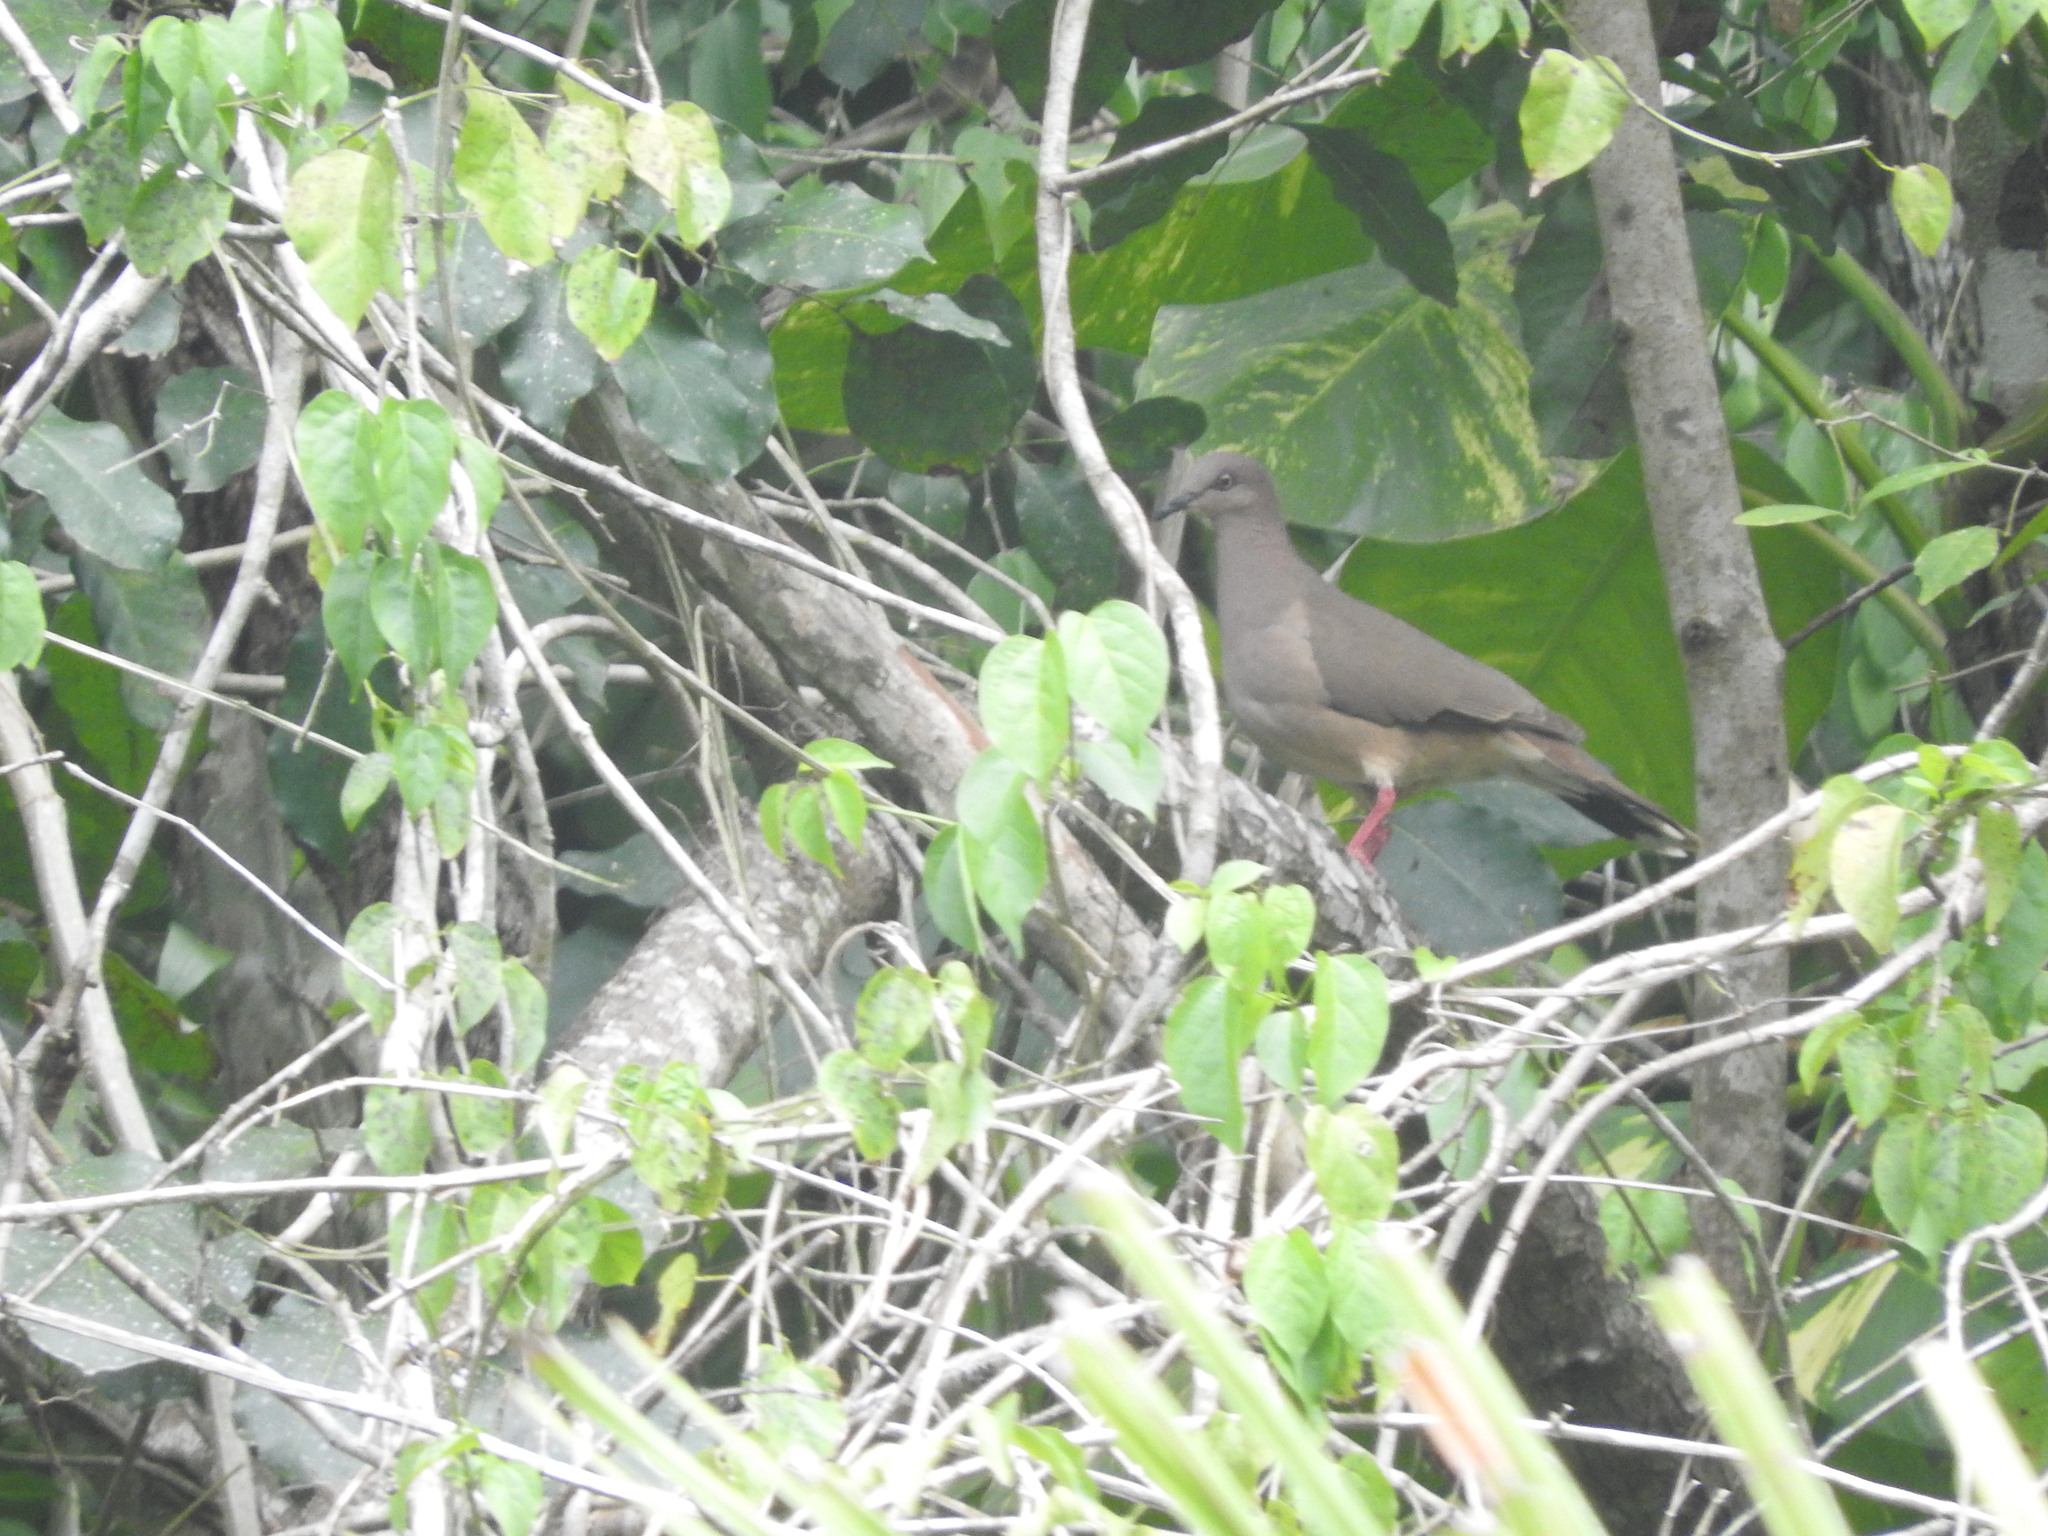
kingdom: Animalia
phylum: Chordata
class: Aves
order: Columbiformes
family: Columbidae
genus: Leptotila
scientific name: Leptotila verreauxi
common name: White-tipped dove
